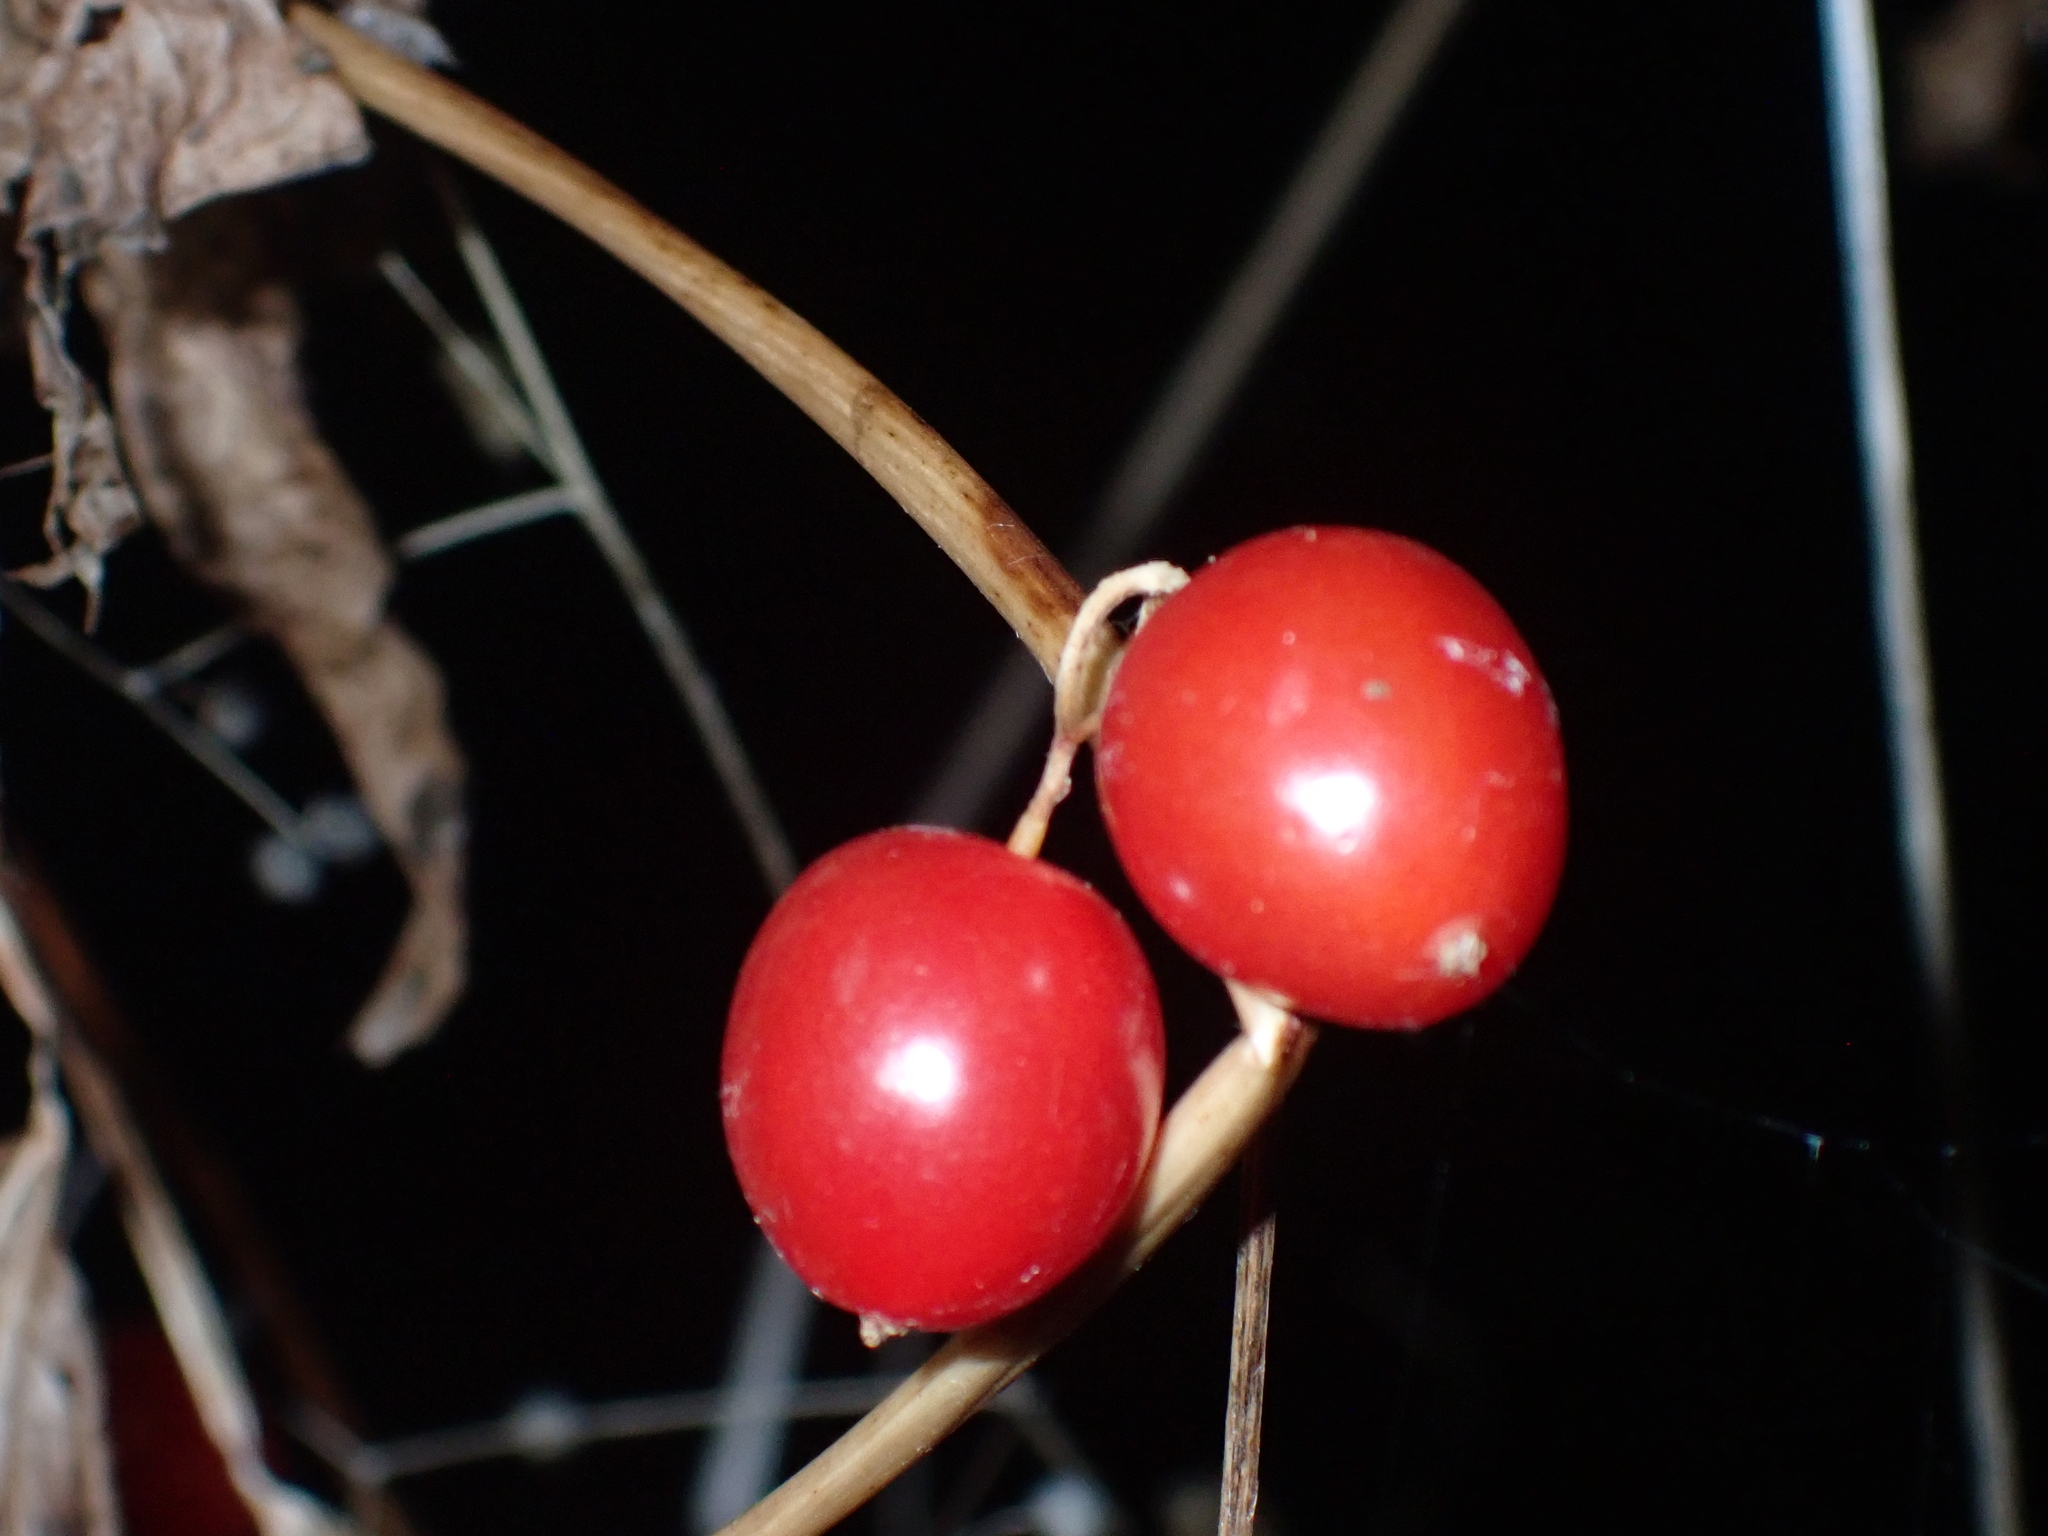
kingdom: Plantae
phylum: Tracheophyta
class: Liliopsida
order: Dioscoreales
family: Dioscoreaceae
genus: Dioscorea
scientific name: Dioscorea communis
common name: Black-bindweed
